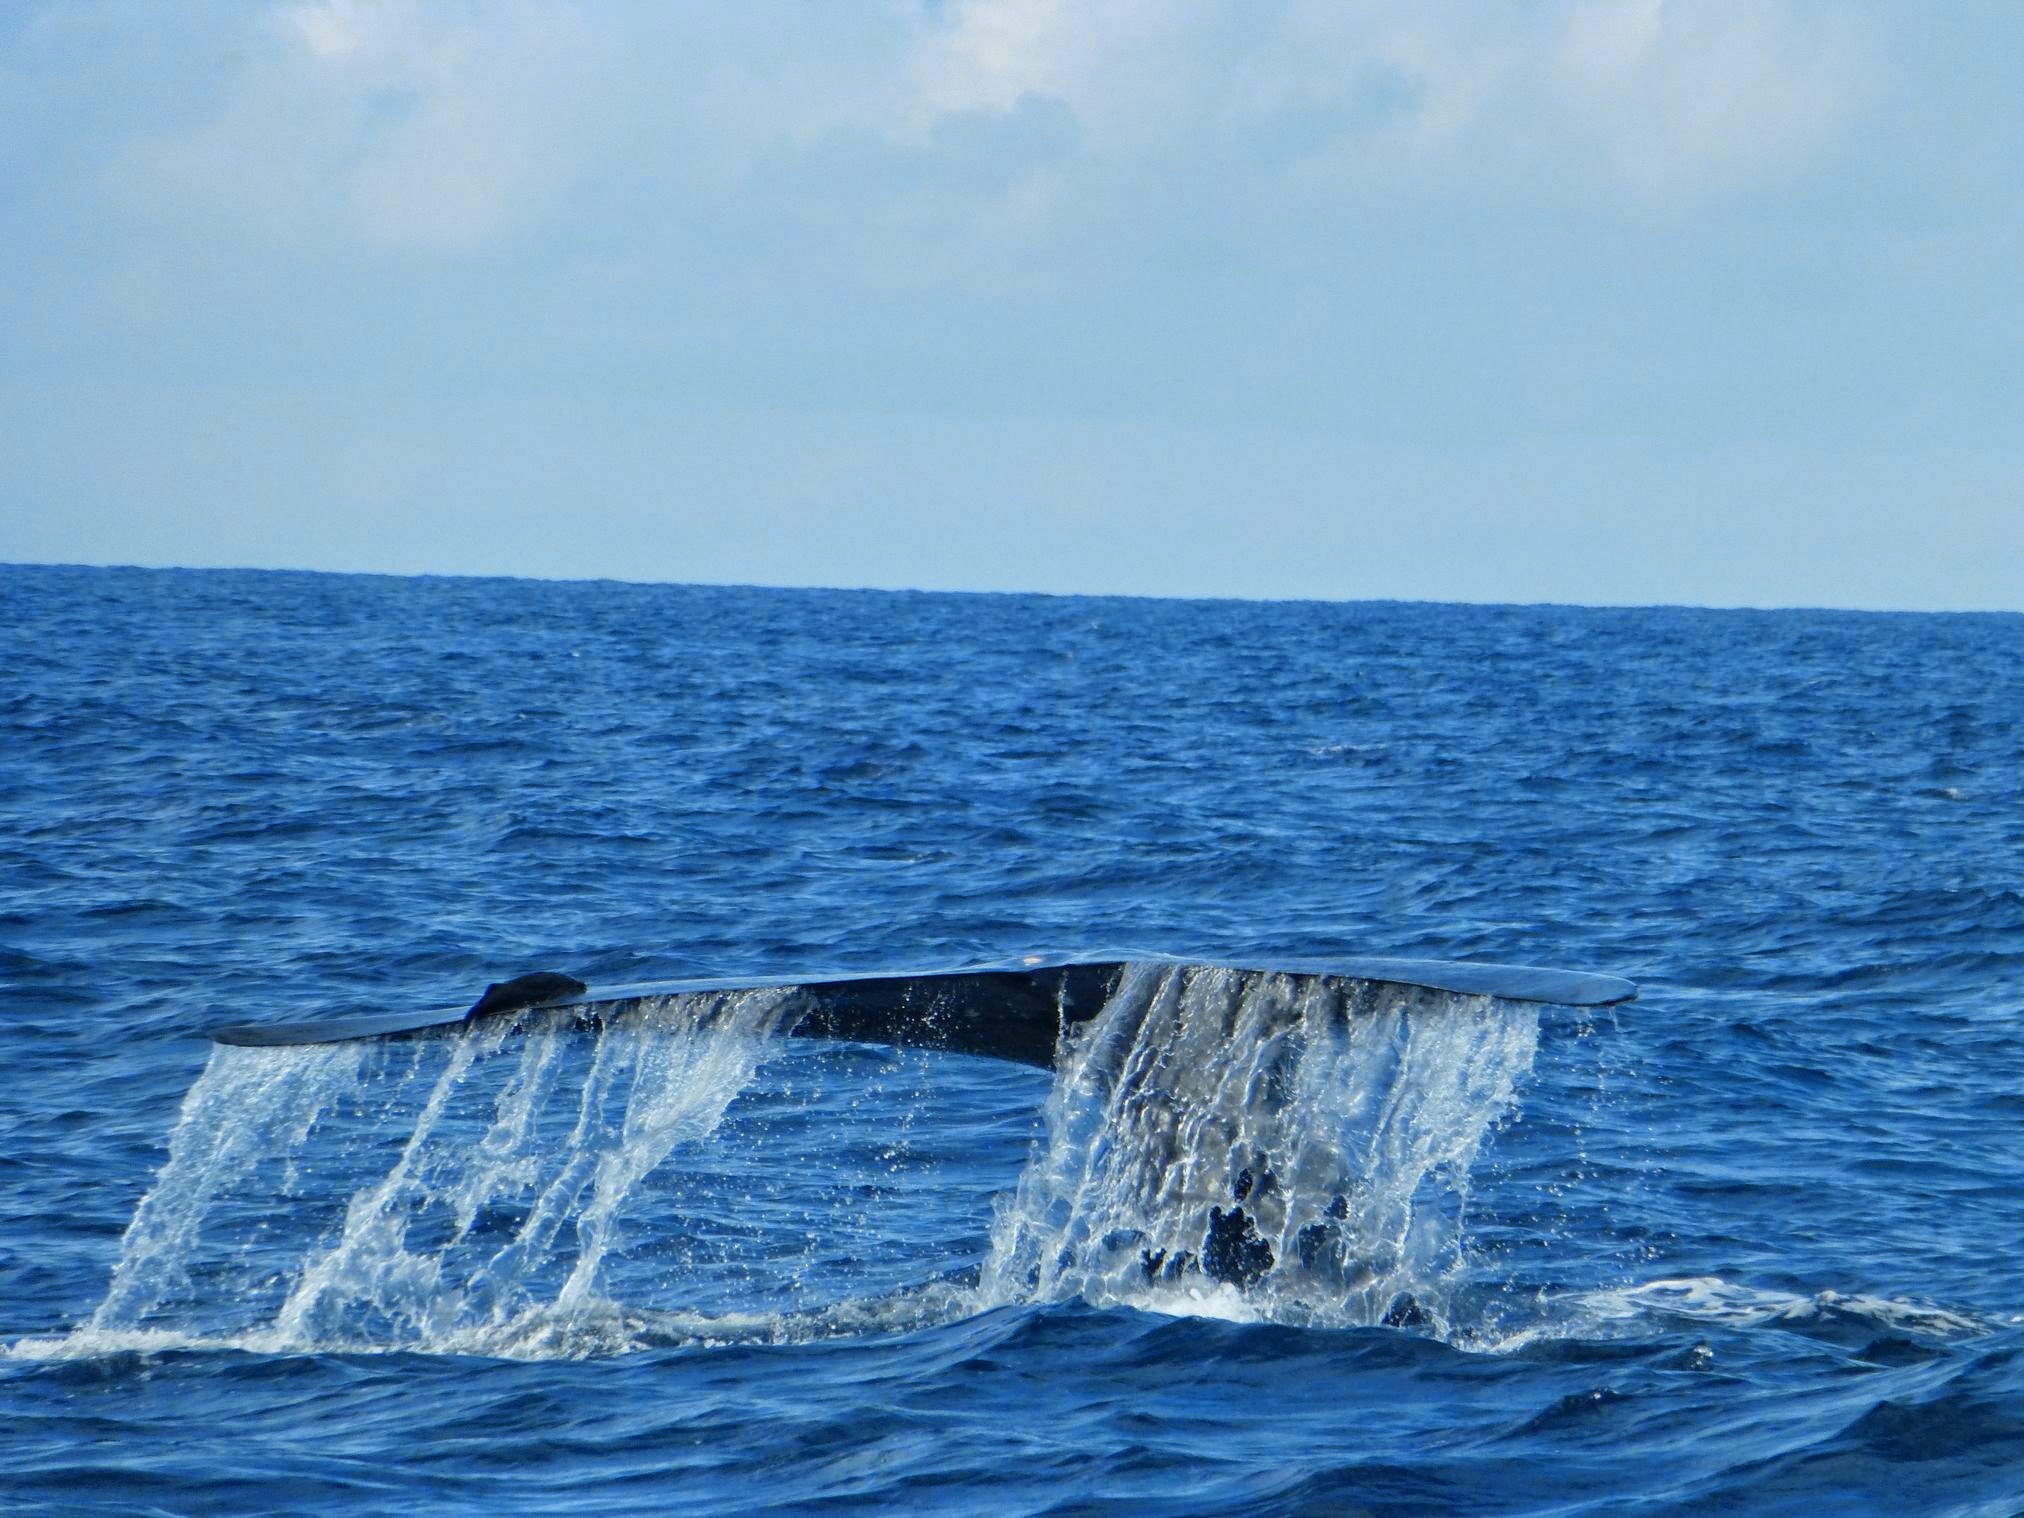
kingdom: Animalia
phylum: Chordata
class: Mammalia
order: Cetacea
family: Balaenopteridae
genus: Balaenoptera
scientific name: Balaenoptera musculus
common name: Blue whale
